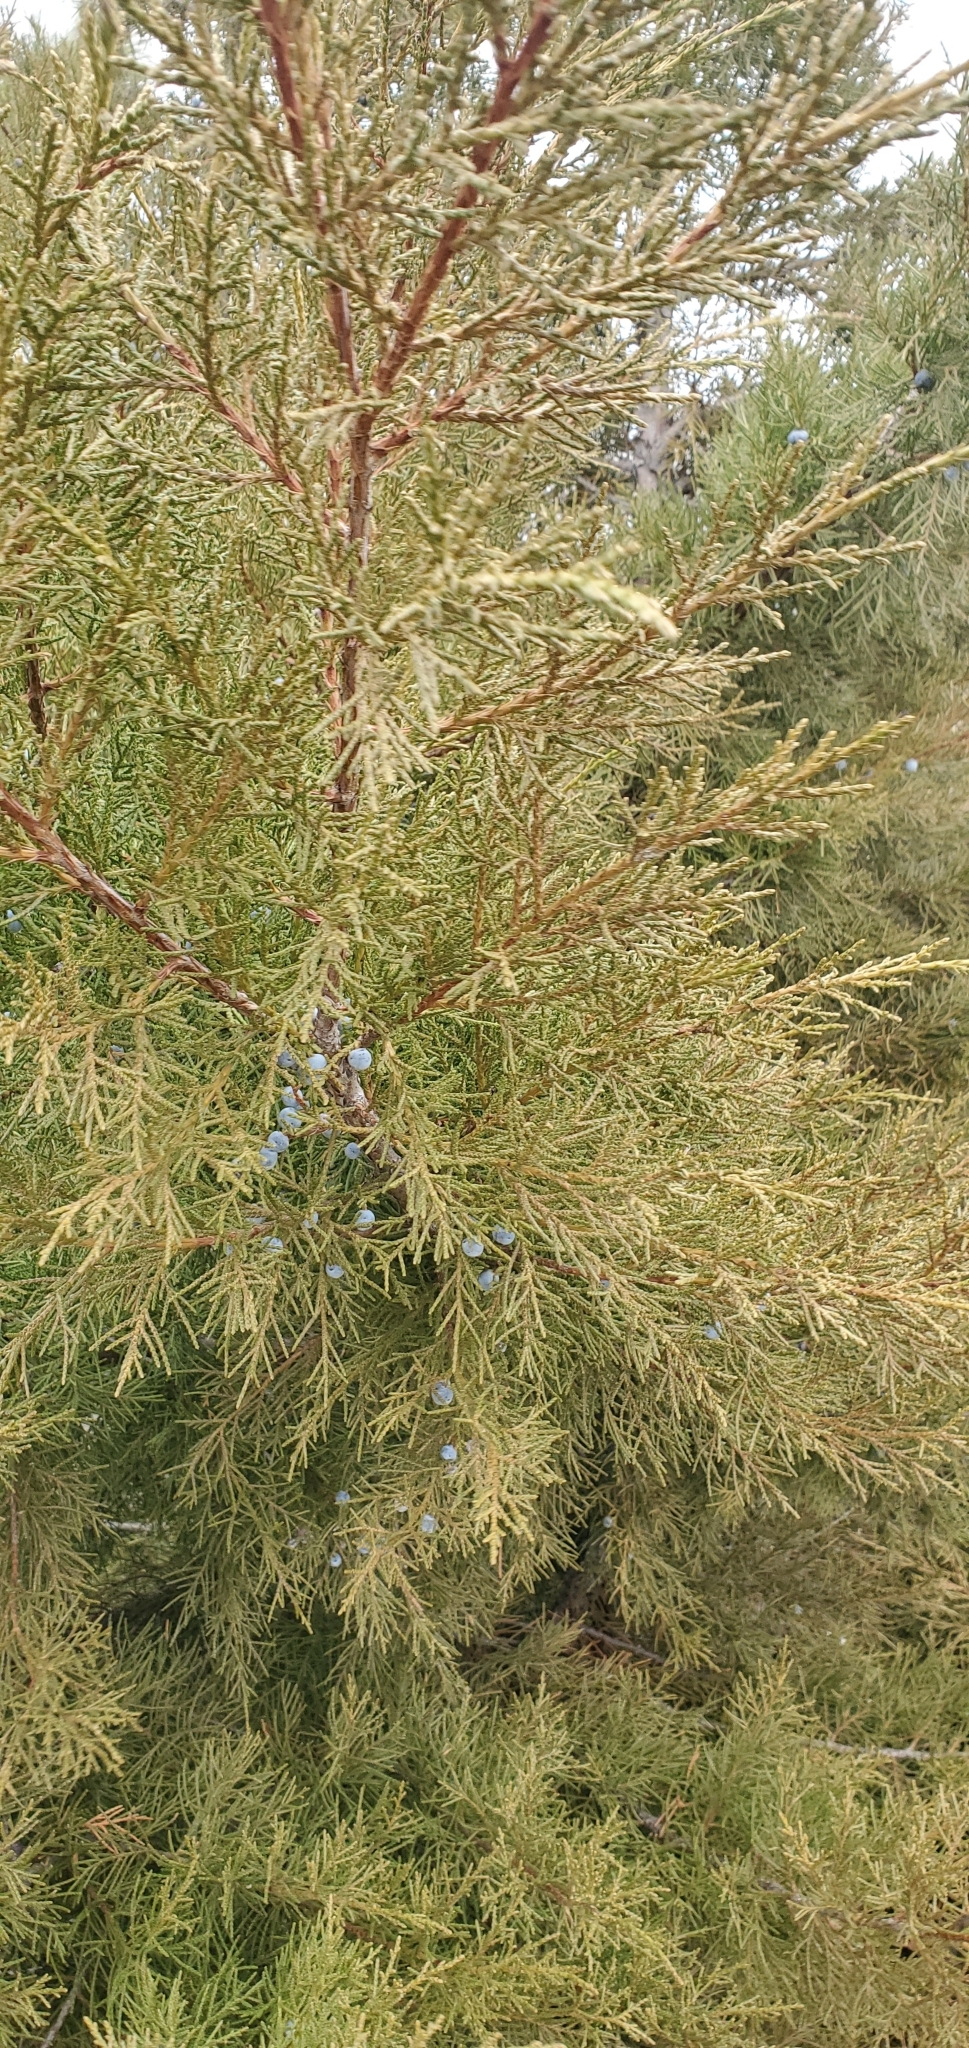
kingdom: Plantae
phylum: Tracheophyta
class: Pinopsida
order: Pinales
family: Cupressaceae
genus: Juniperus
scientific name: Juniperus scopulorum
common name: Rocky mountain juniper
